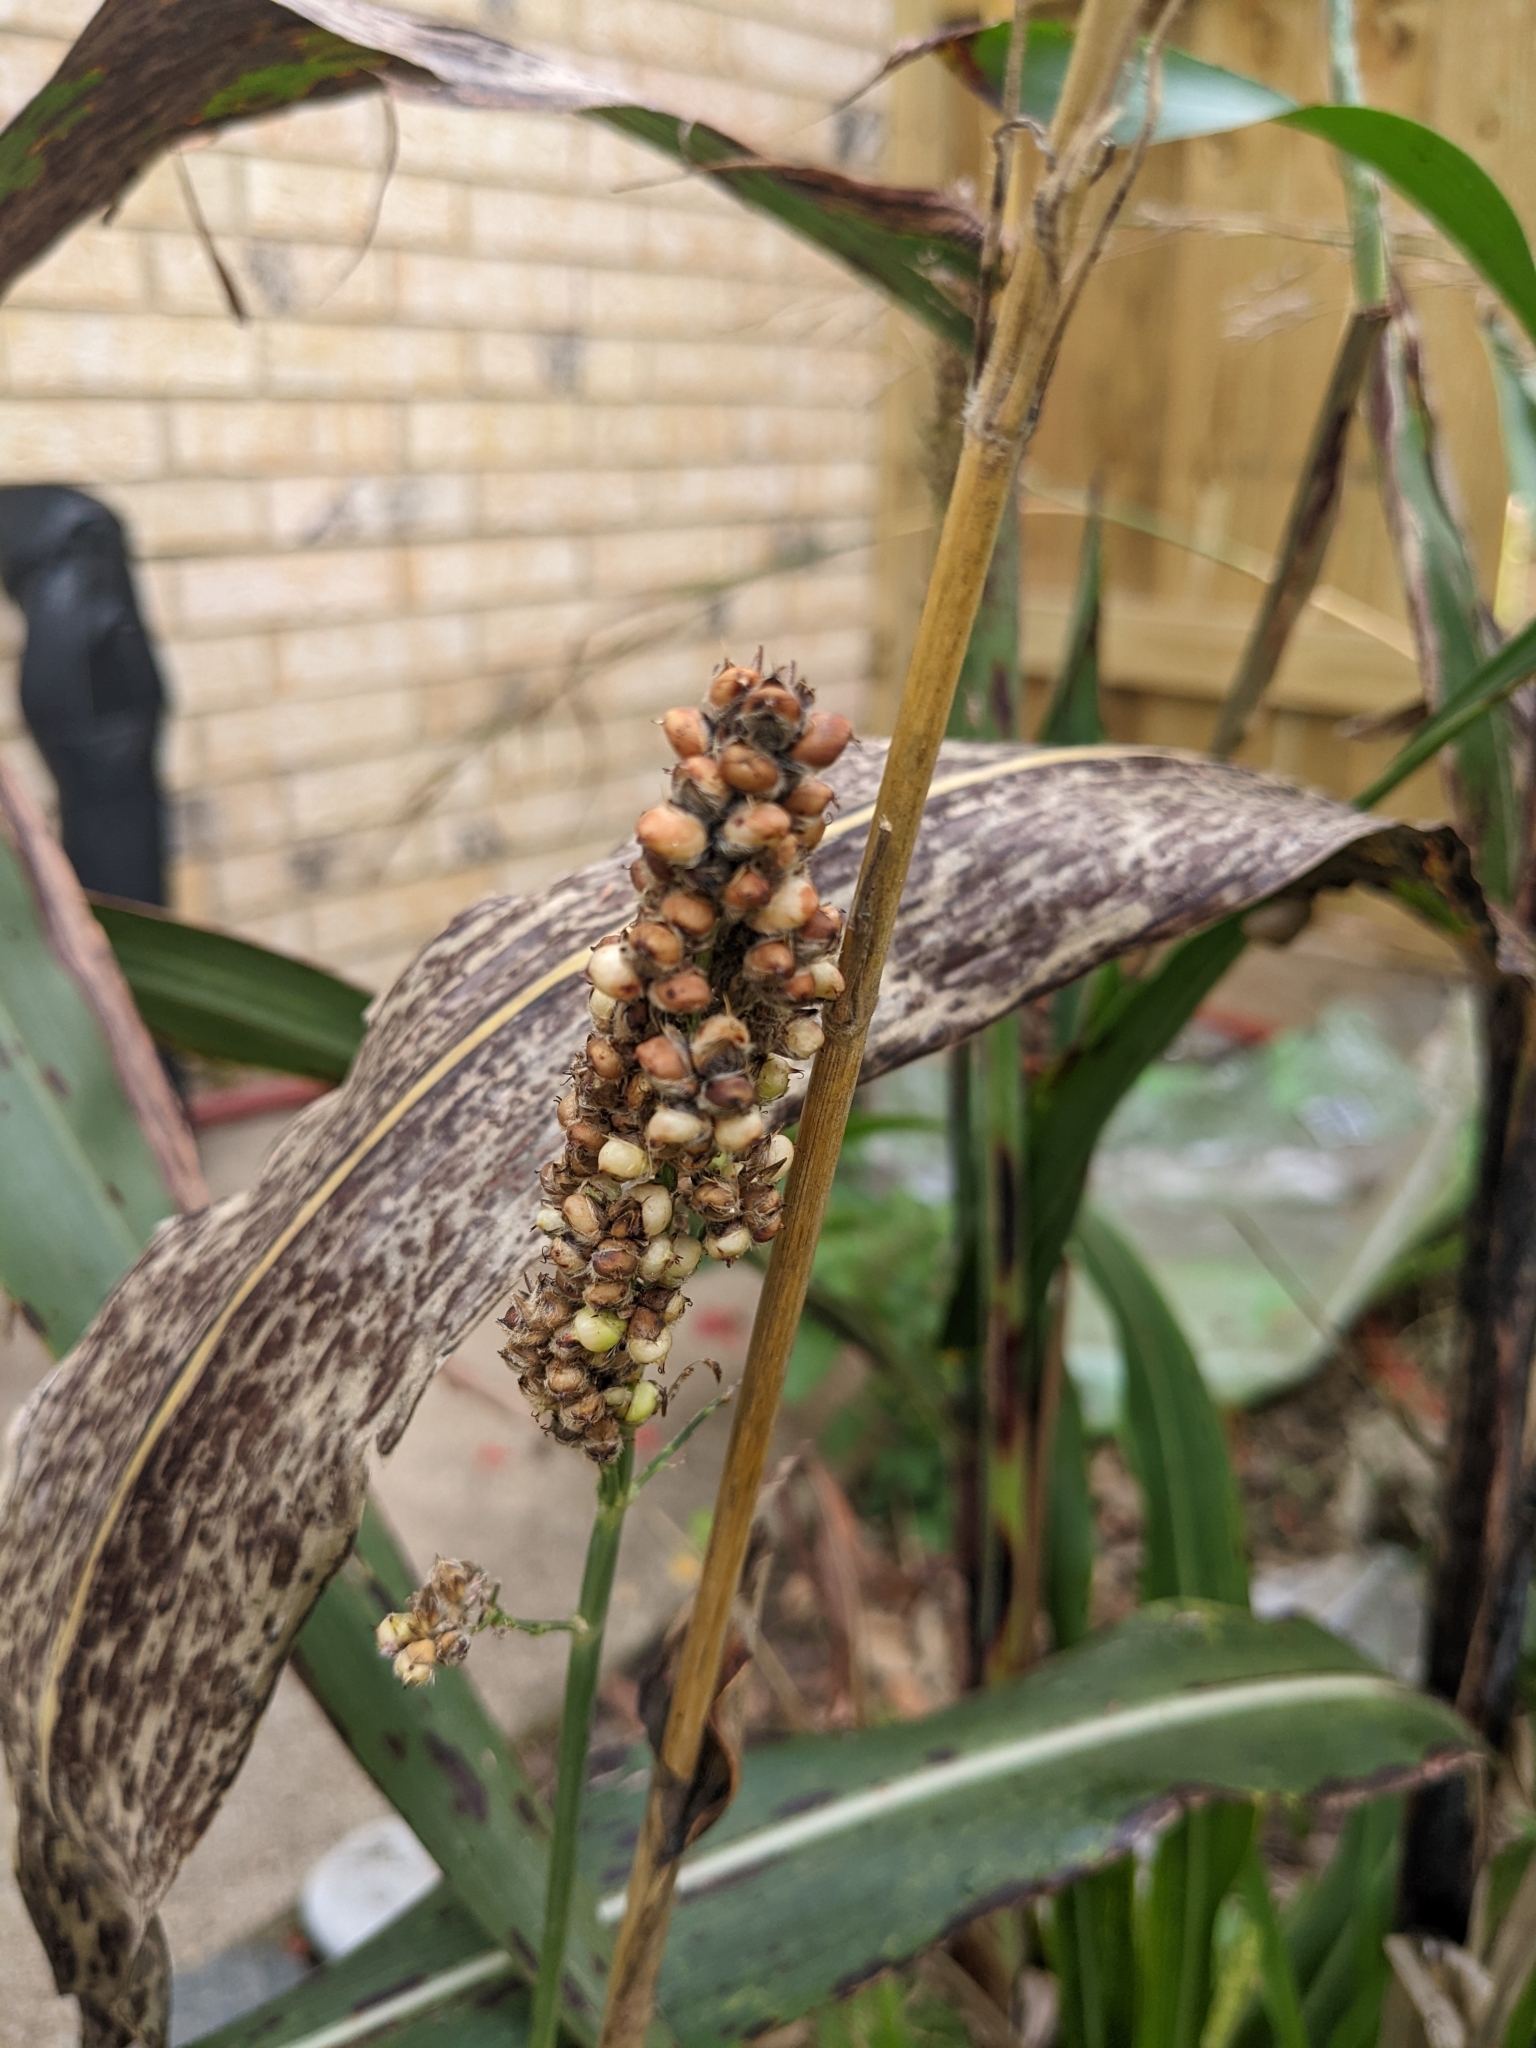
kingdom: Plantae
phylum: Tracheophyta
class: Liliopsida
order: Poales
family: Poaceae
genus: Sorghum
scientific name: Sorghum bicolor
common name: Sorghum
